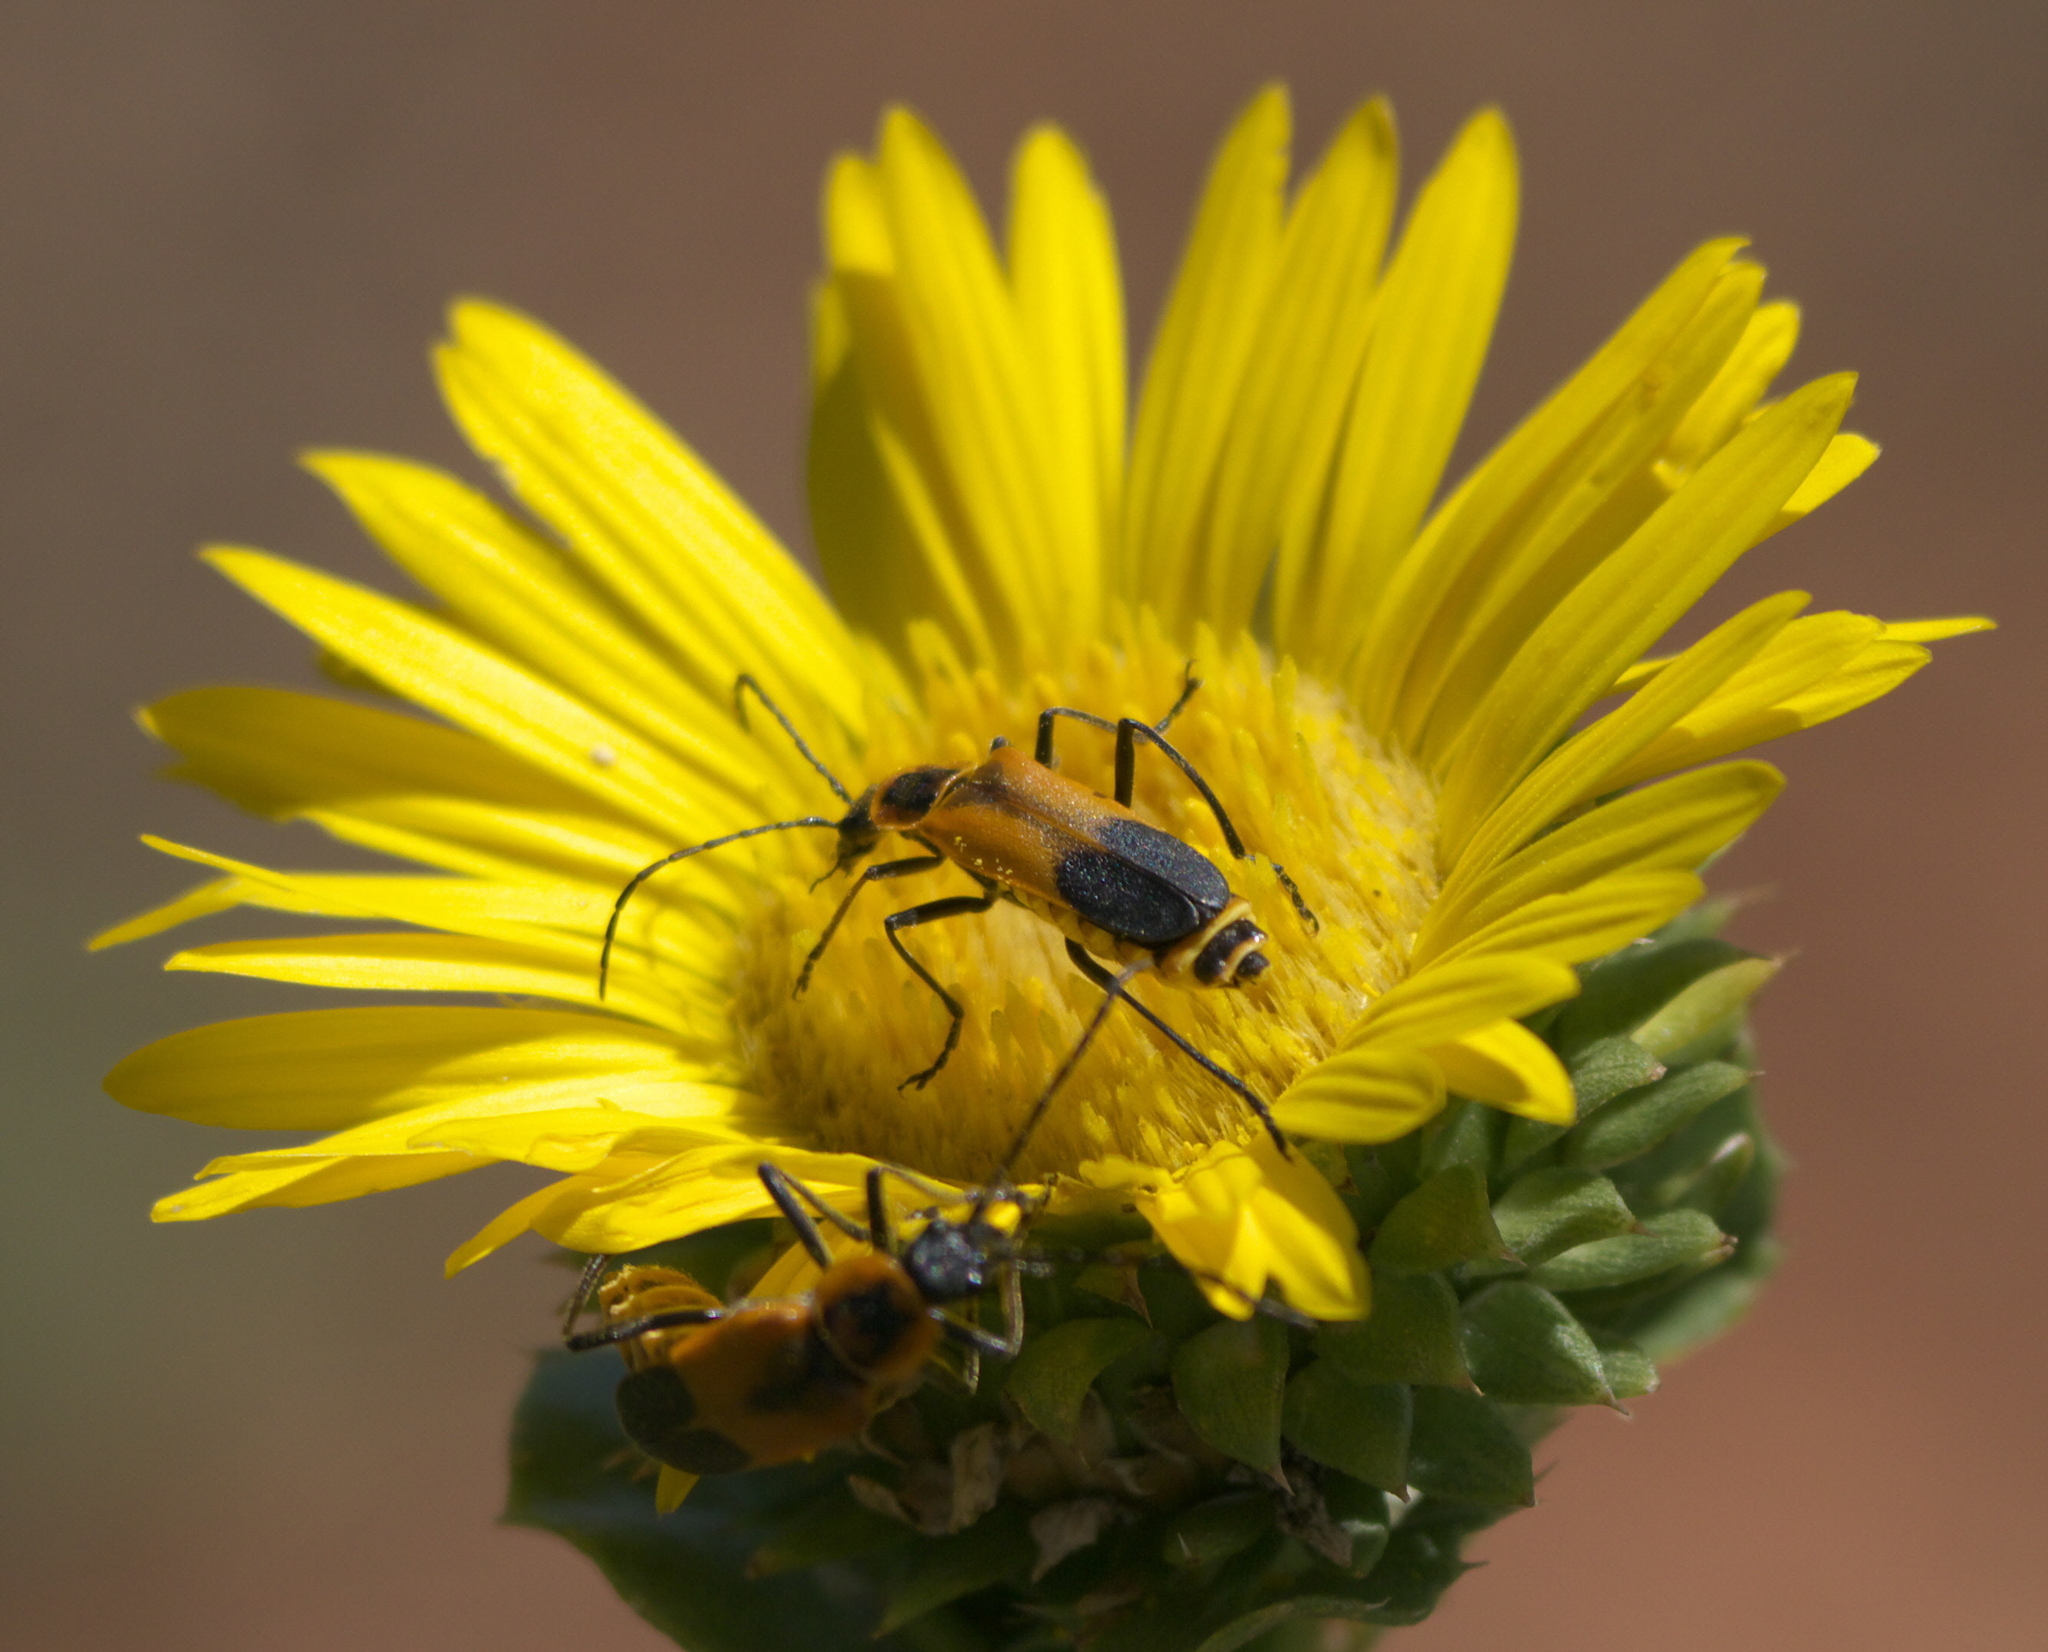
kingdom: Animalia
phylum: Arthropoda
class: Insecta
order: Coleoptera
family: Cantharidae
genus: Chauliognathus
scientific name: Chauliognathus limbicollis
